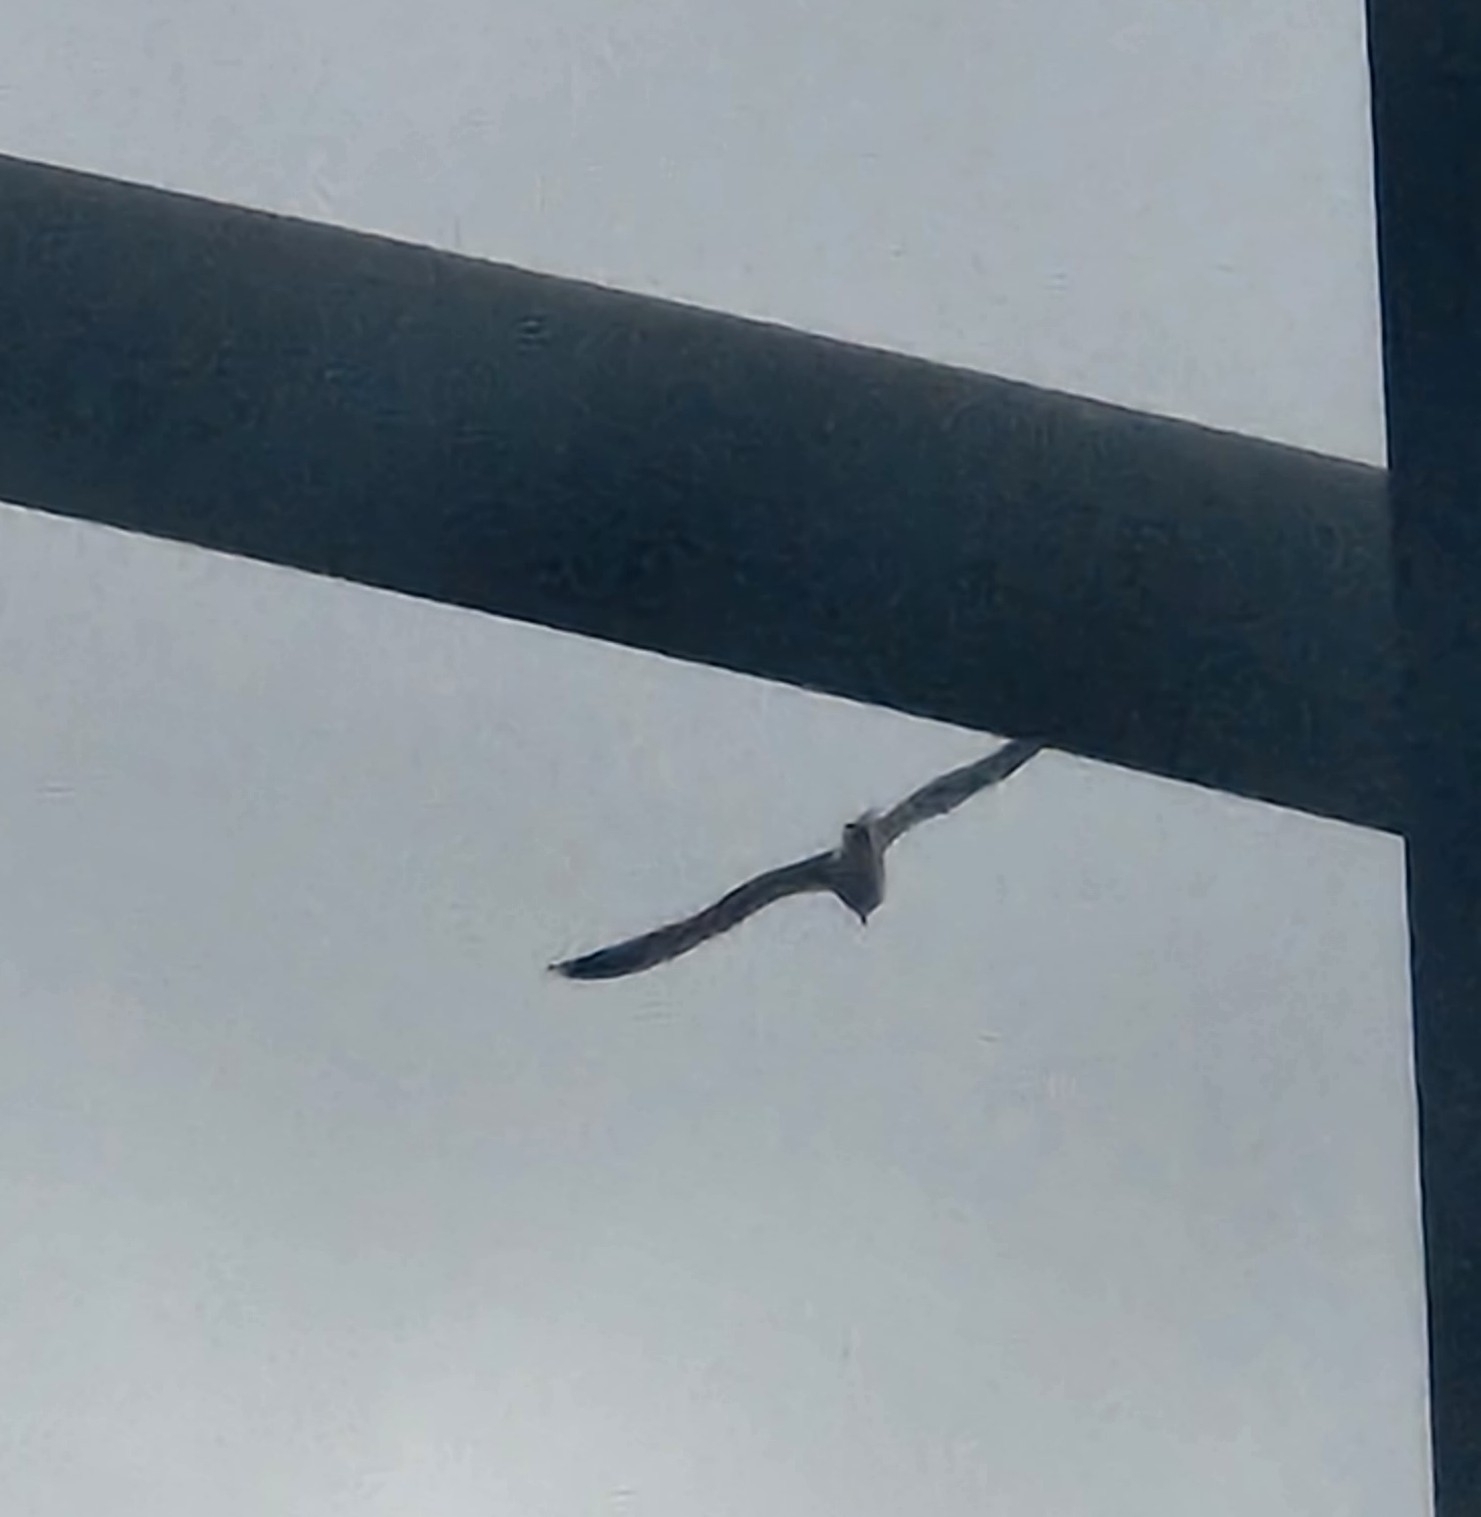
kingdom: Animalia
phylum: Chordata
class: Aves
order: Charadriiformes
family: Laridae
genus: Larus
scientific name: Larus
